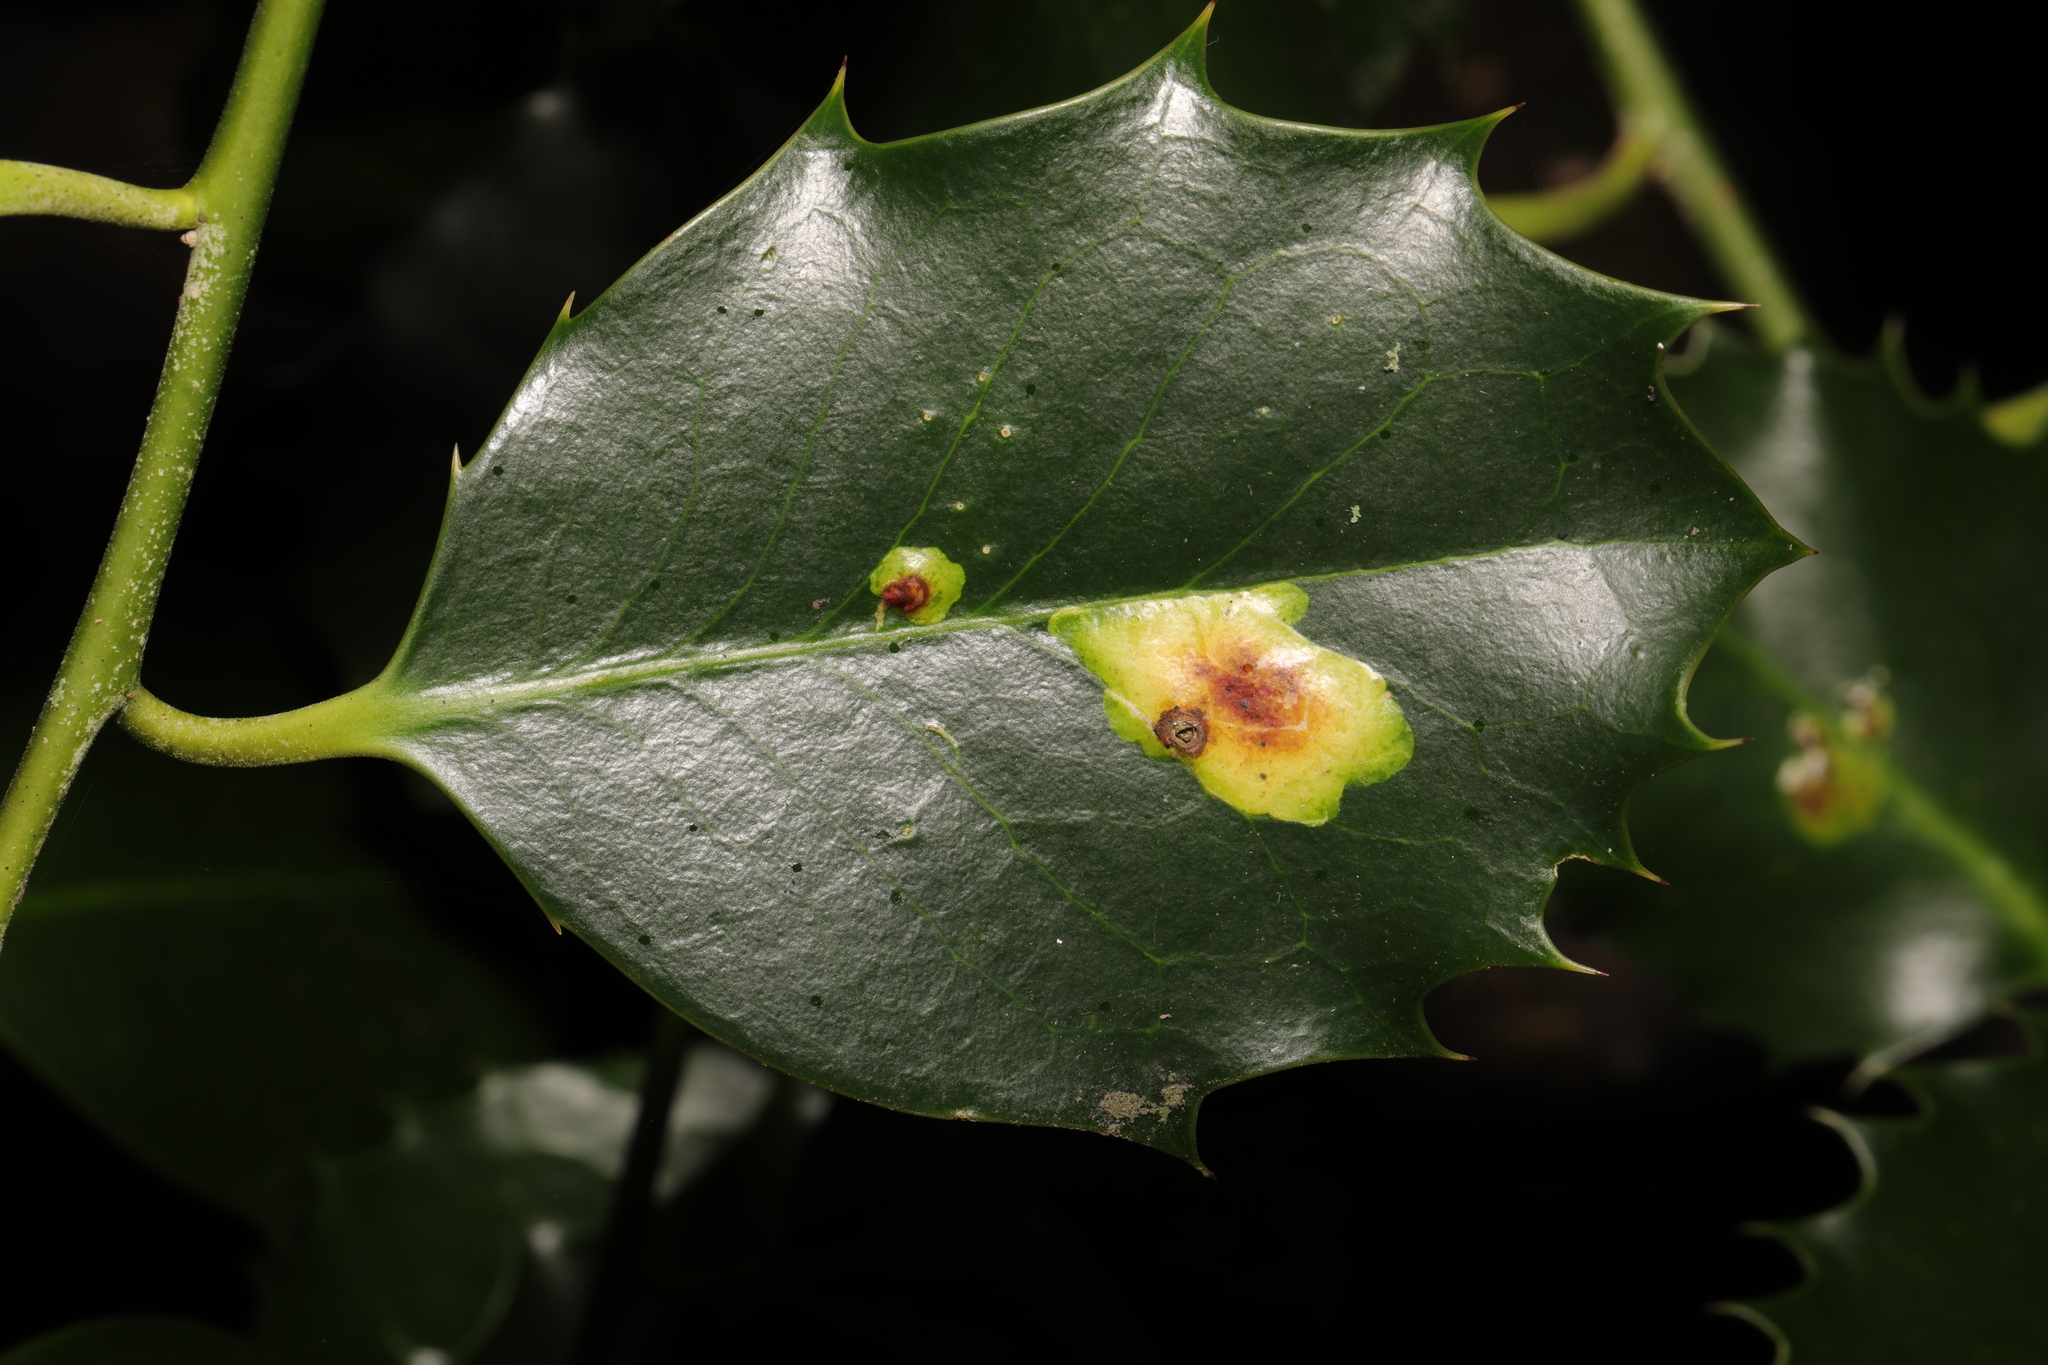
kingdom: Animalia
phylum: Arthropoda
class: Insecta
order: Diptera
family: Agromyzidae
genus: Phytomyza
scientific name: Phytomyza ilicis
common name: Holly leafminer
